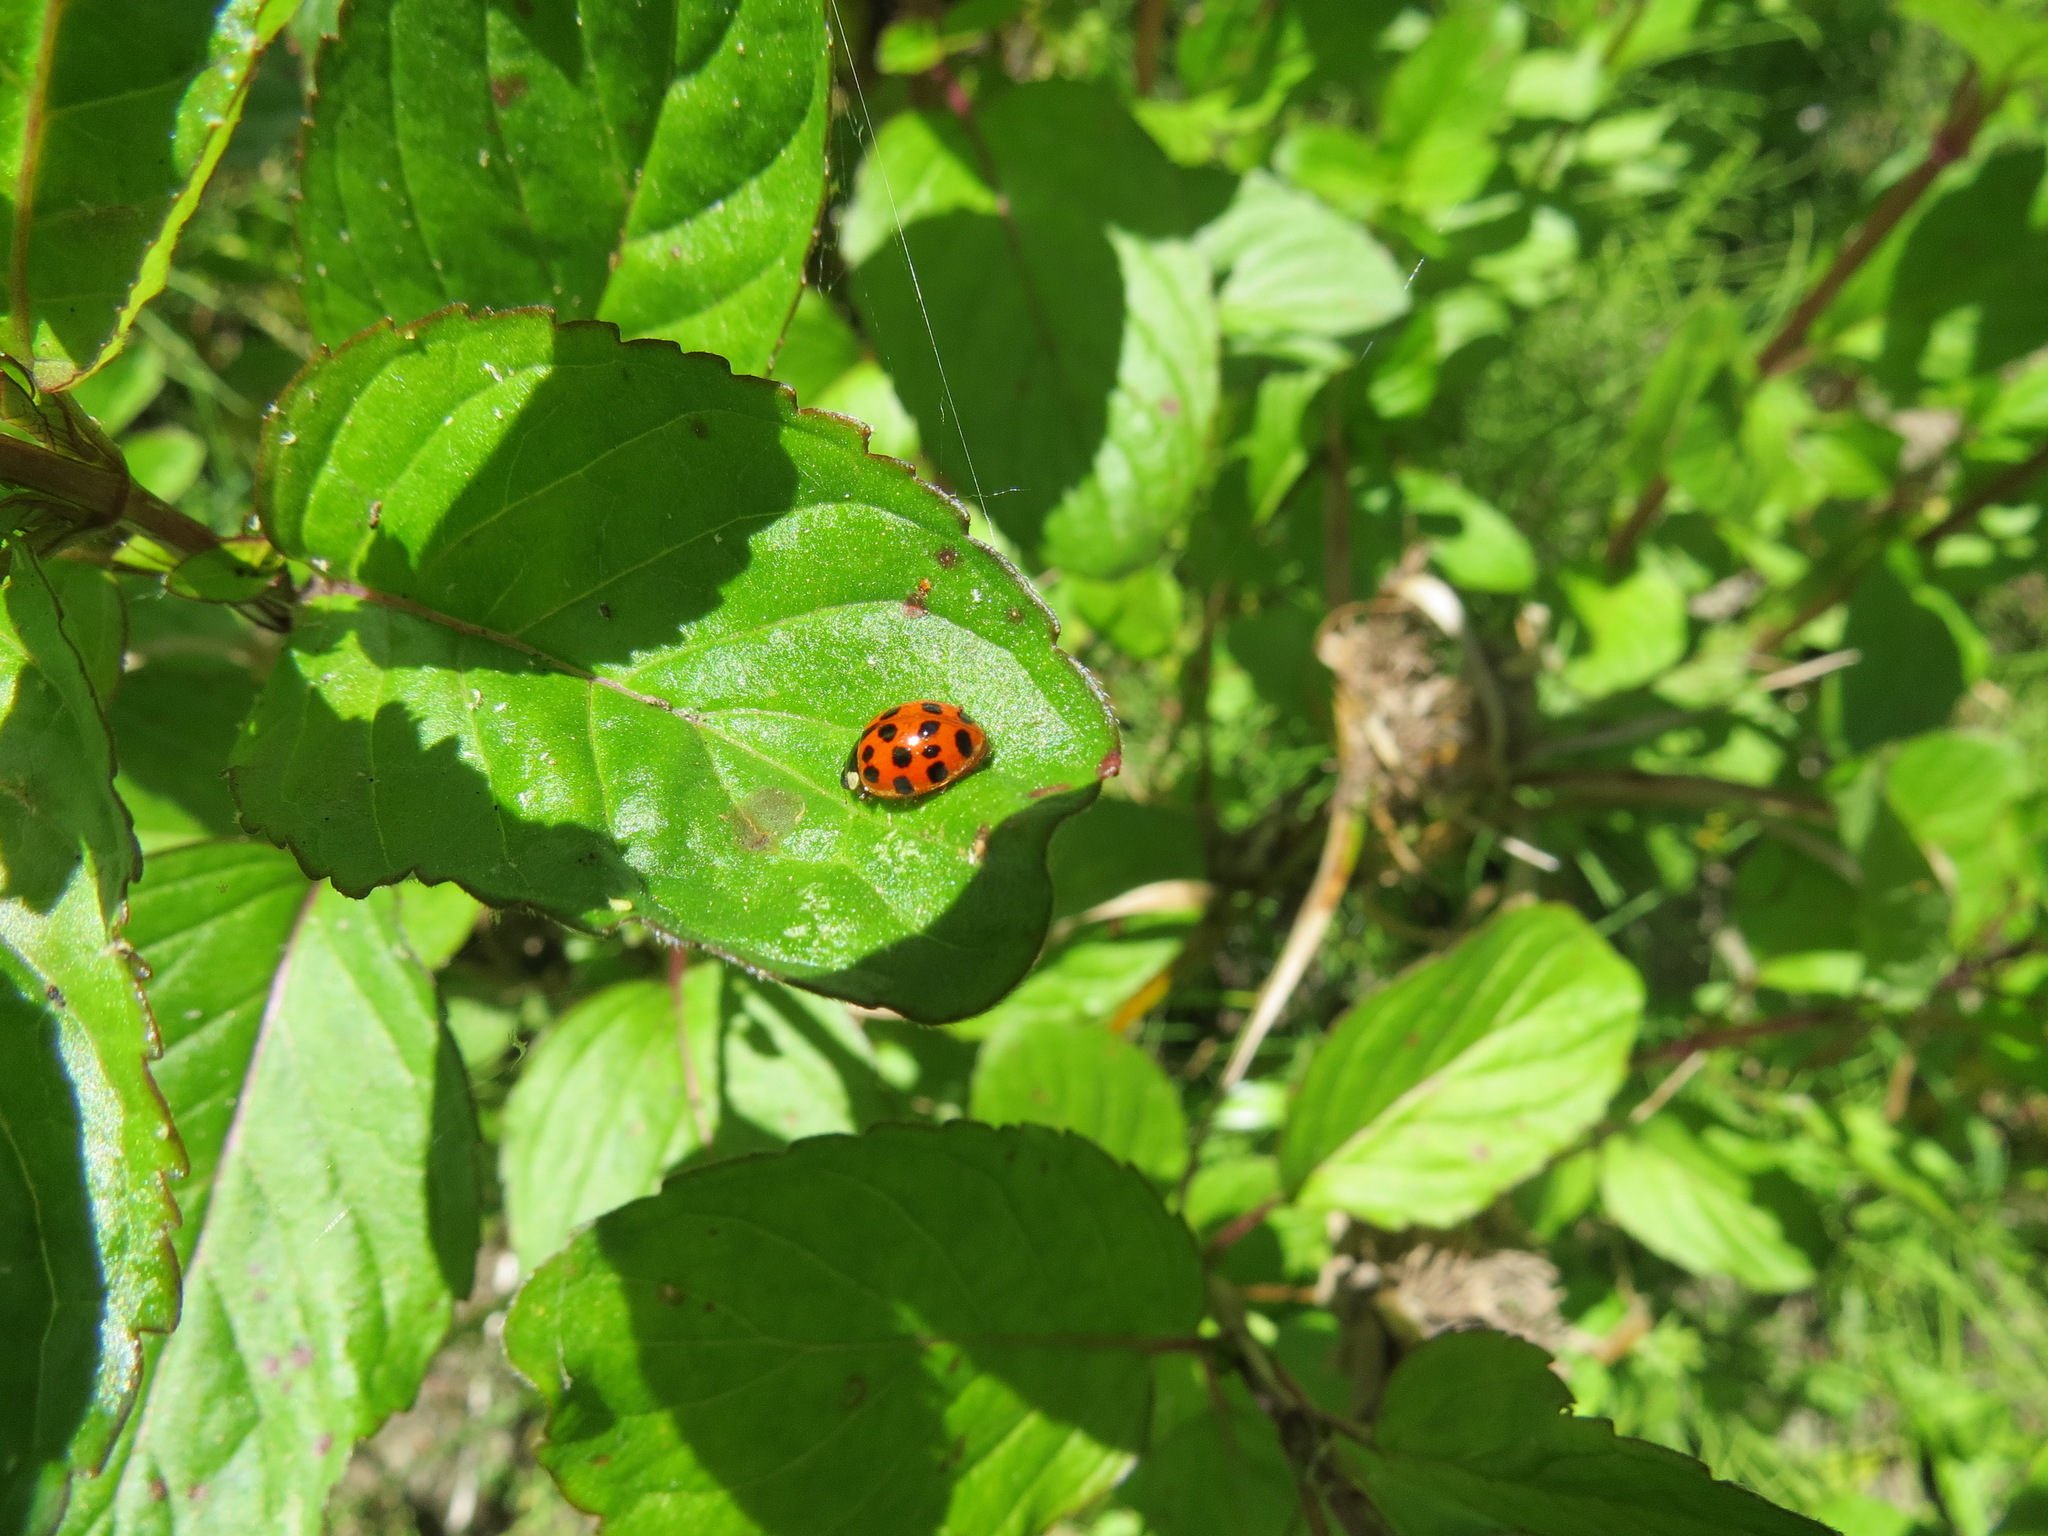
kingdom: Animalia
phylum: Arthropoda
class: Insecta
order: Coleoptera
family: Coccinellidae
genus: Harmonia
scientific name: Harmonia axyridis
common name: Harlequin ladybird
